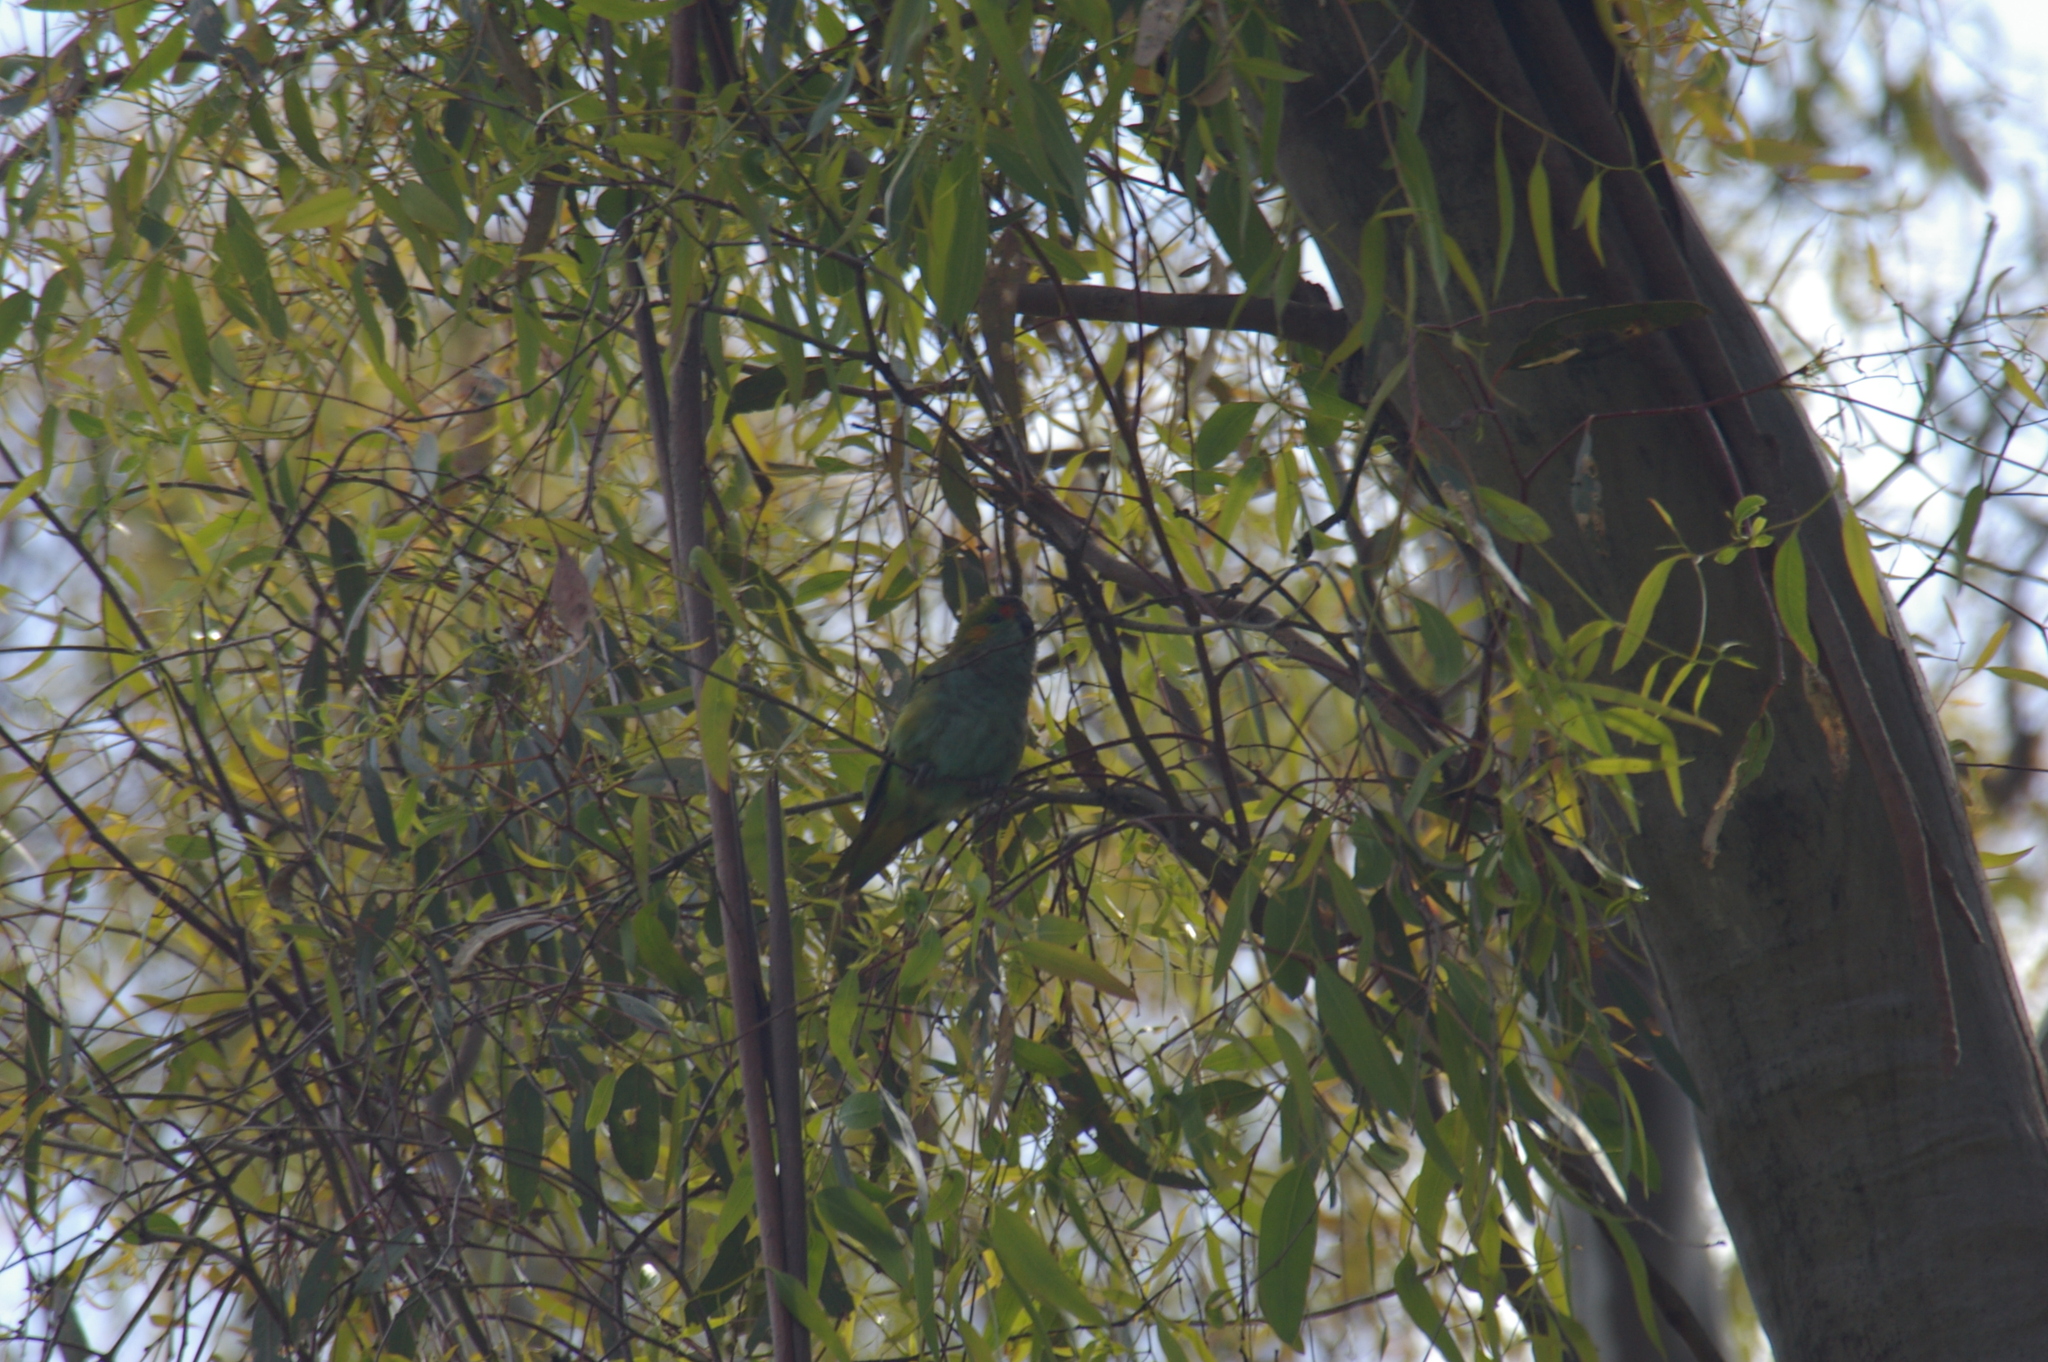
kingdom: Animalia
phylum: Chordata
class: Aves
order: Psittaciformes
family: Psittaculidae
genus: Parvipsitta
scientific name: Parvipsitta porphyrocephala
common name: Purple-crowned lorikeet
